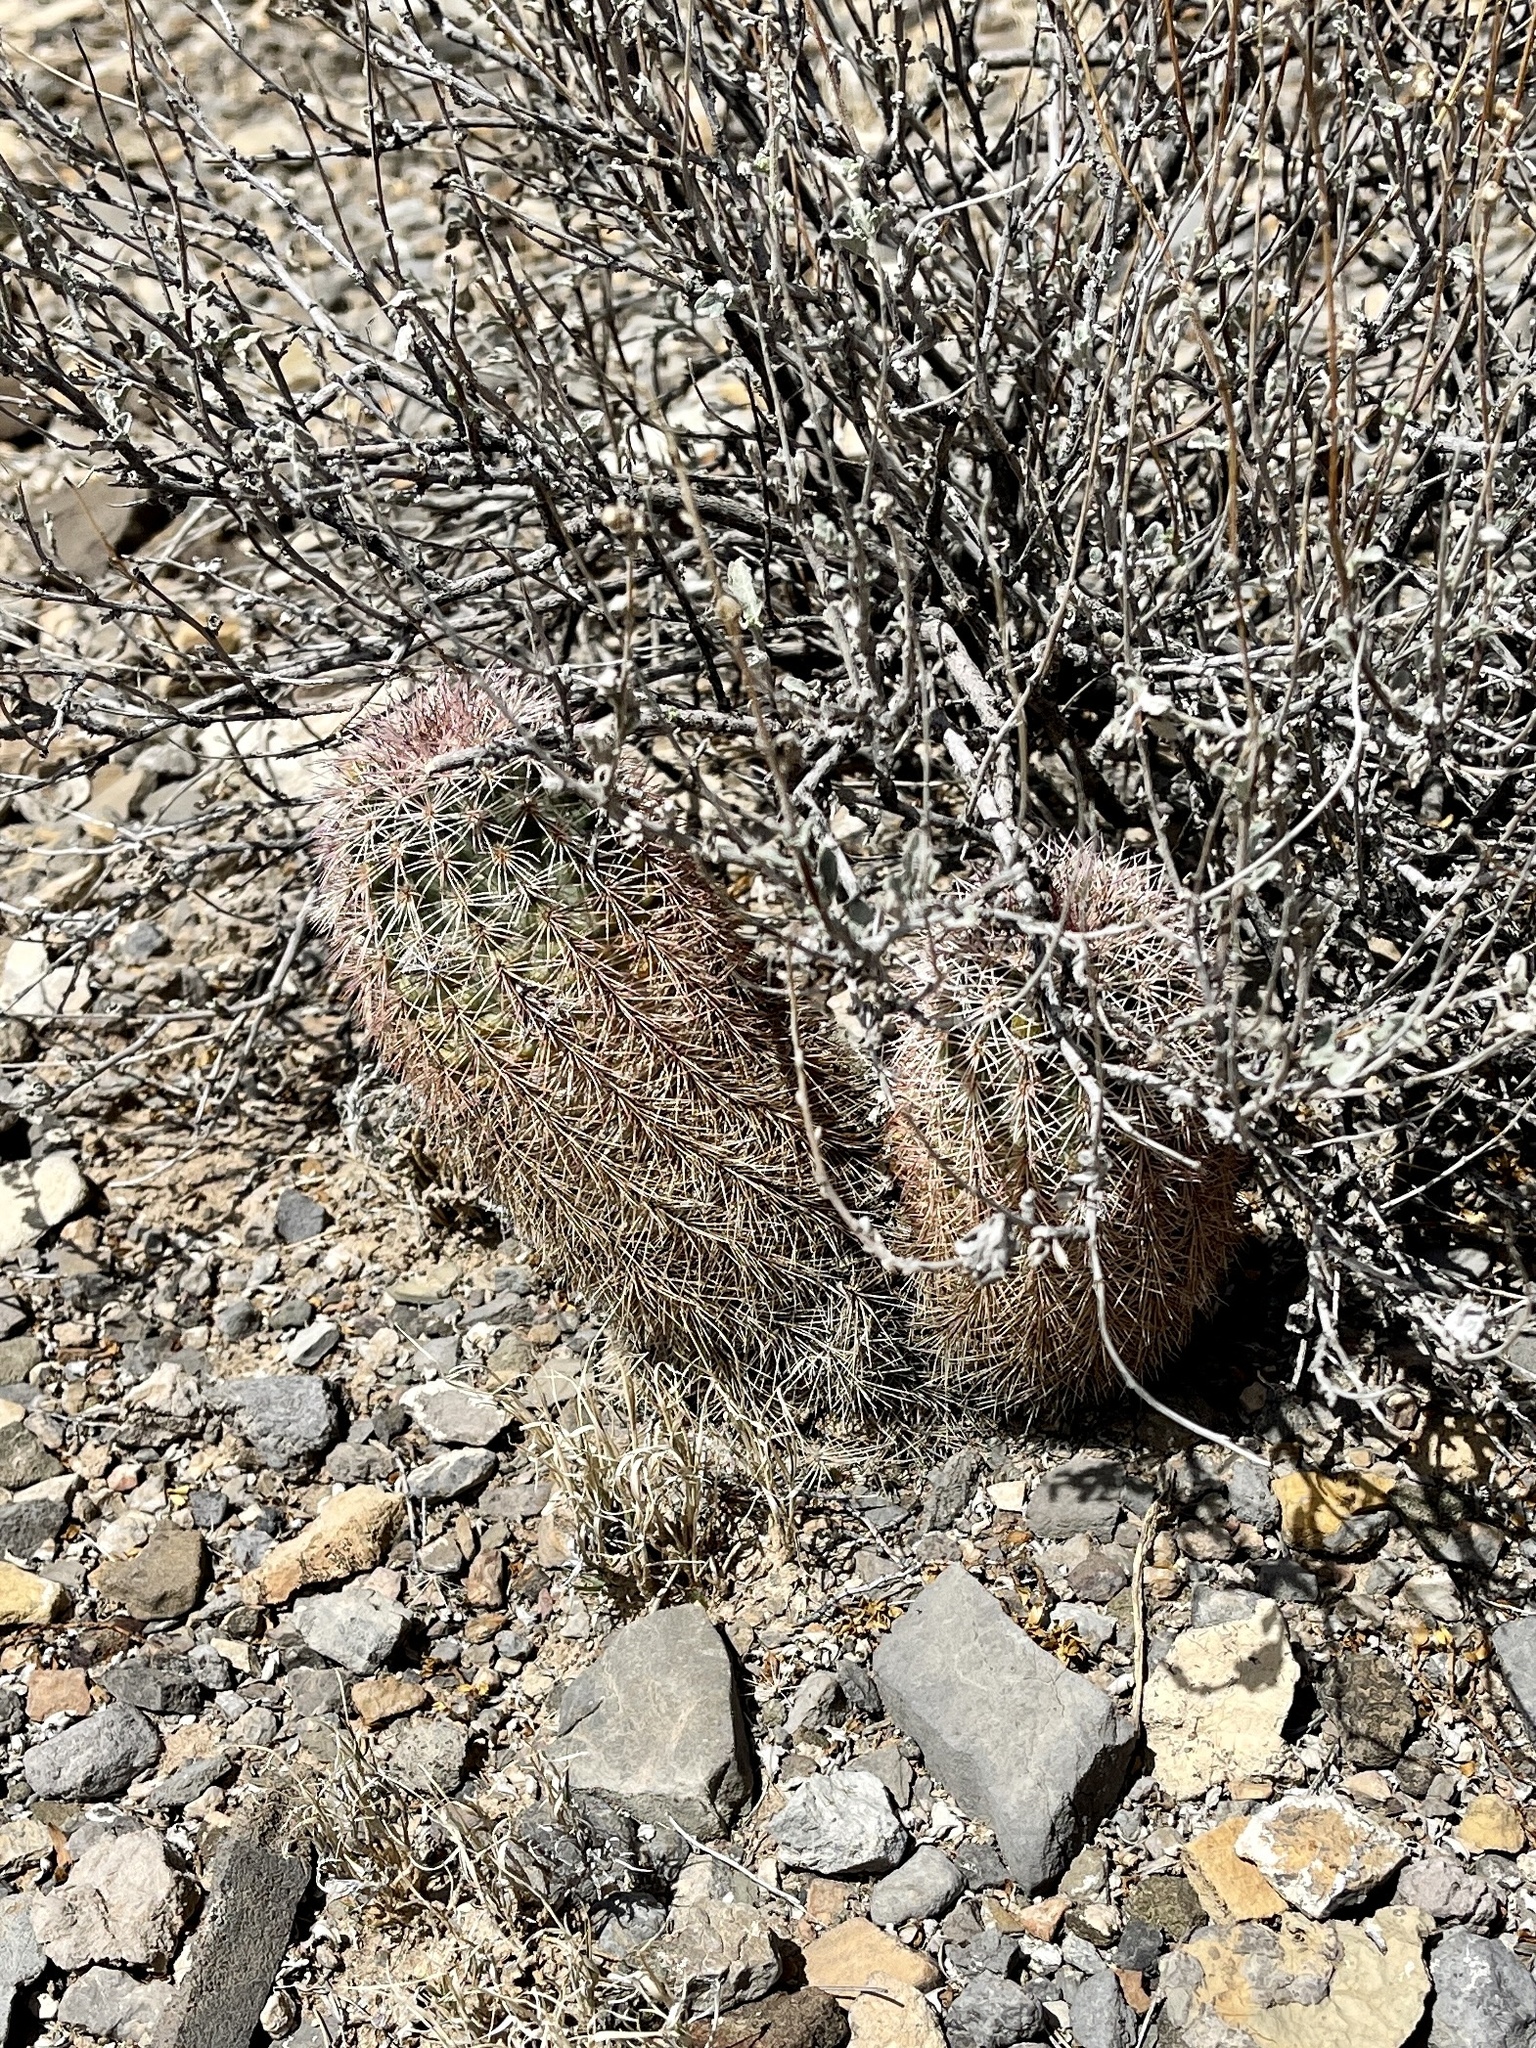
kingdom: Plantae
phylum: Tracheophyta
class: Magnoliopsida
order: Caryophyllales
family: Cactaceae
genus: Echinocereus
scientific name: Echinocereus dasyacanthus
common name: Spiny hedgehog cactus
